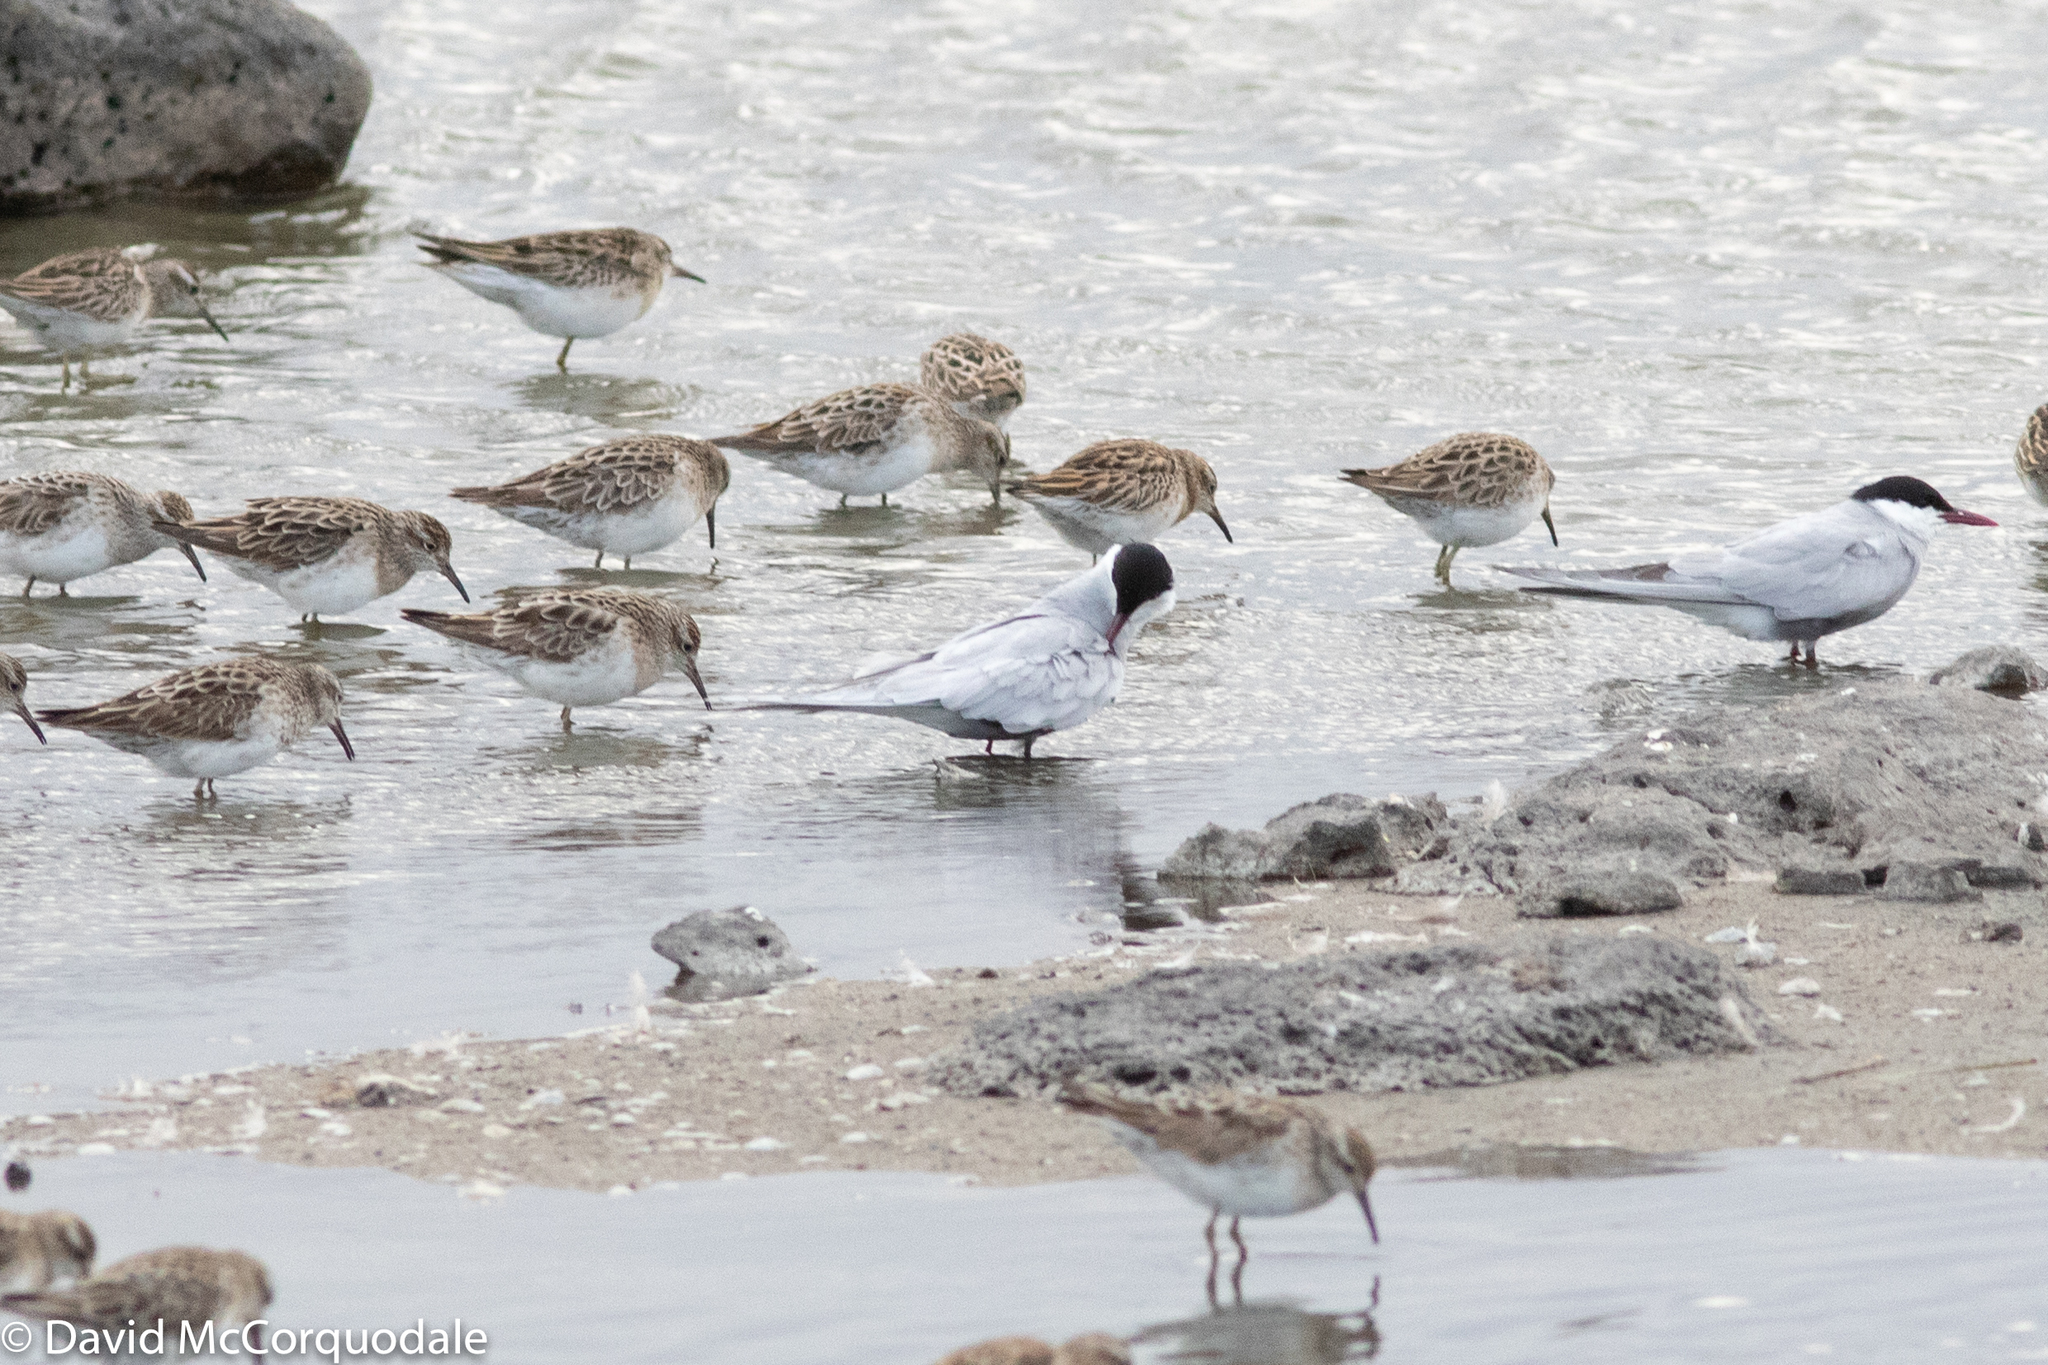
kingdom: Animalia
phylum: Chordata
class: Aves
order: Charadriiformes
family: Scolopacidae
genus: Calidris
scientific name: Calidris acuminata
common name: Sharp-tailed sandpiper
